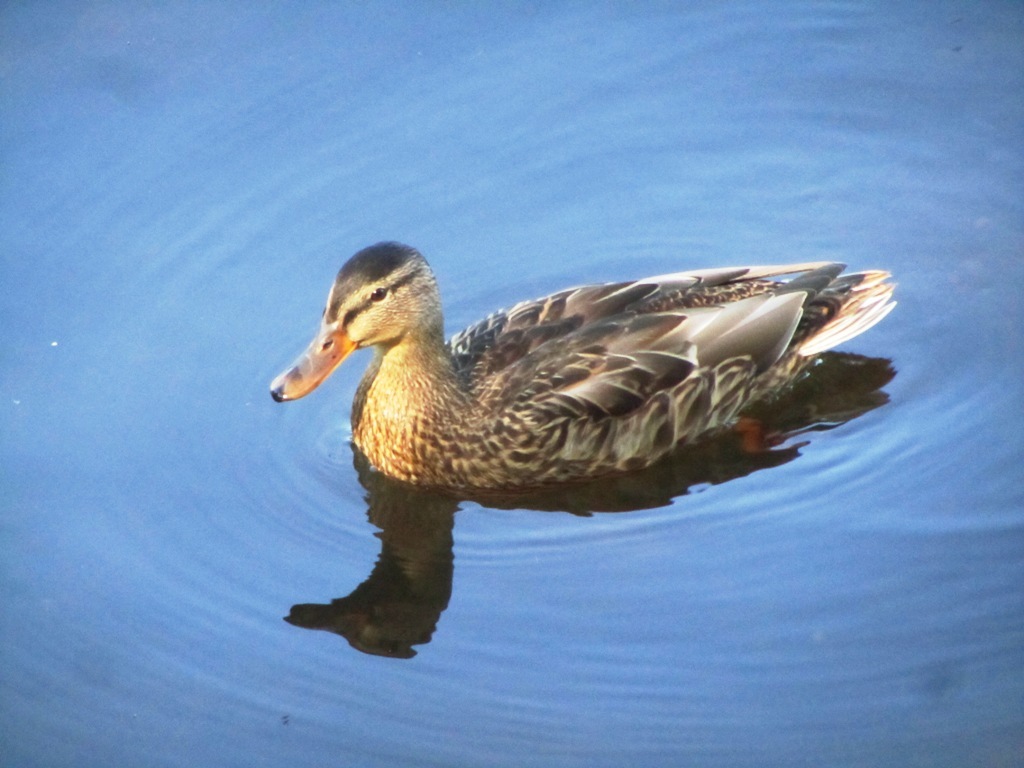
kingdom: Animalia
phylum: Chordata
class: Aves
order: Anseriformes
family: Anatidae
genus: Anas
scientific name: Anas platyrhynchos
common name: Mallard
